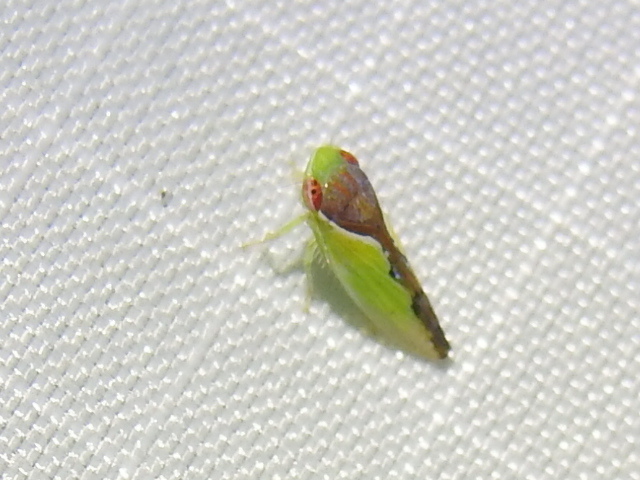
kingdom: Animalia
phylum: Arthropoda
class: Insecta
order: Hemiptera
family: Cicadellidae
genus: Omansobara ing
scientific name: Omansobara ing Omansobara palliolata
